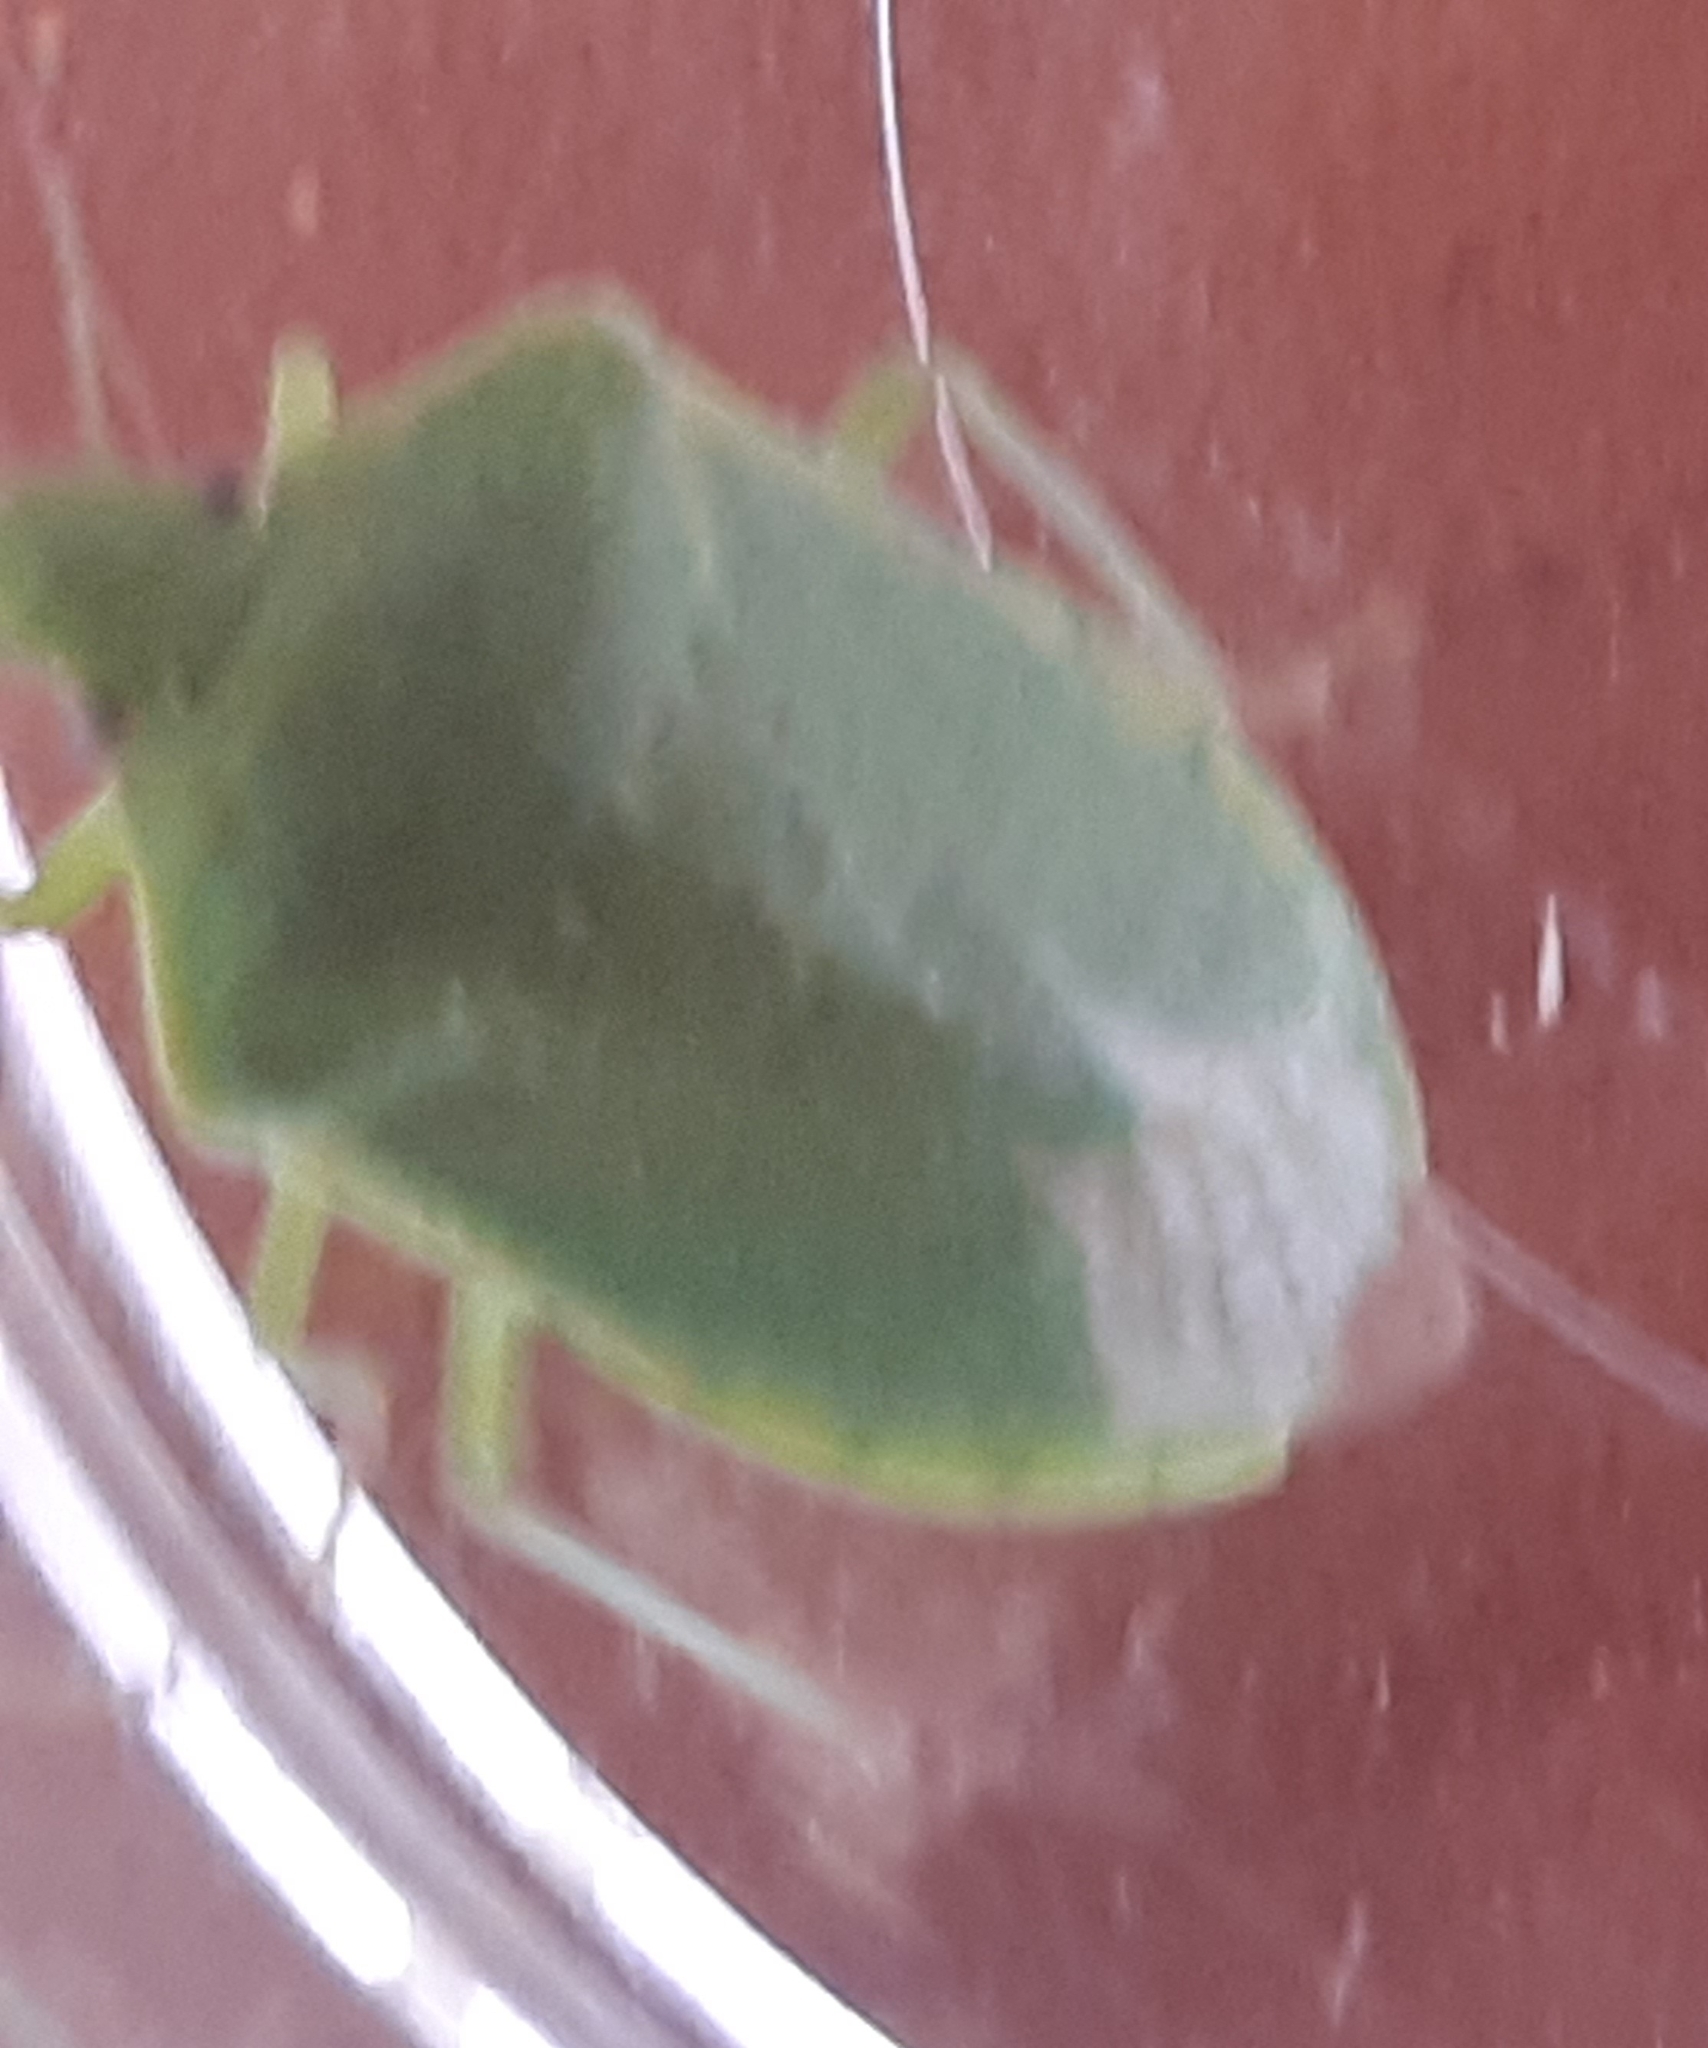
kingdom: Animalia
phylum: Arthropoda
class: Insecta
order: Hemiptera
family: Pentatomidae
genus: Nezara
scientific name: Nezara viridula
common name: Southern green stink bug
